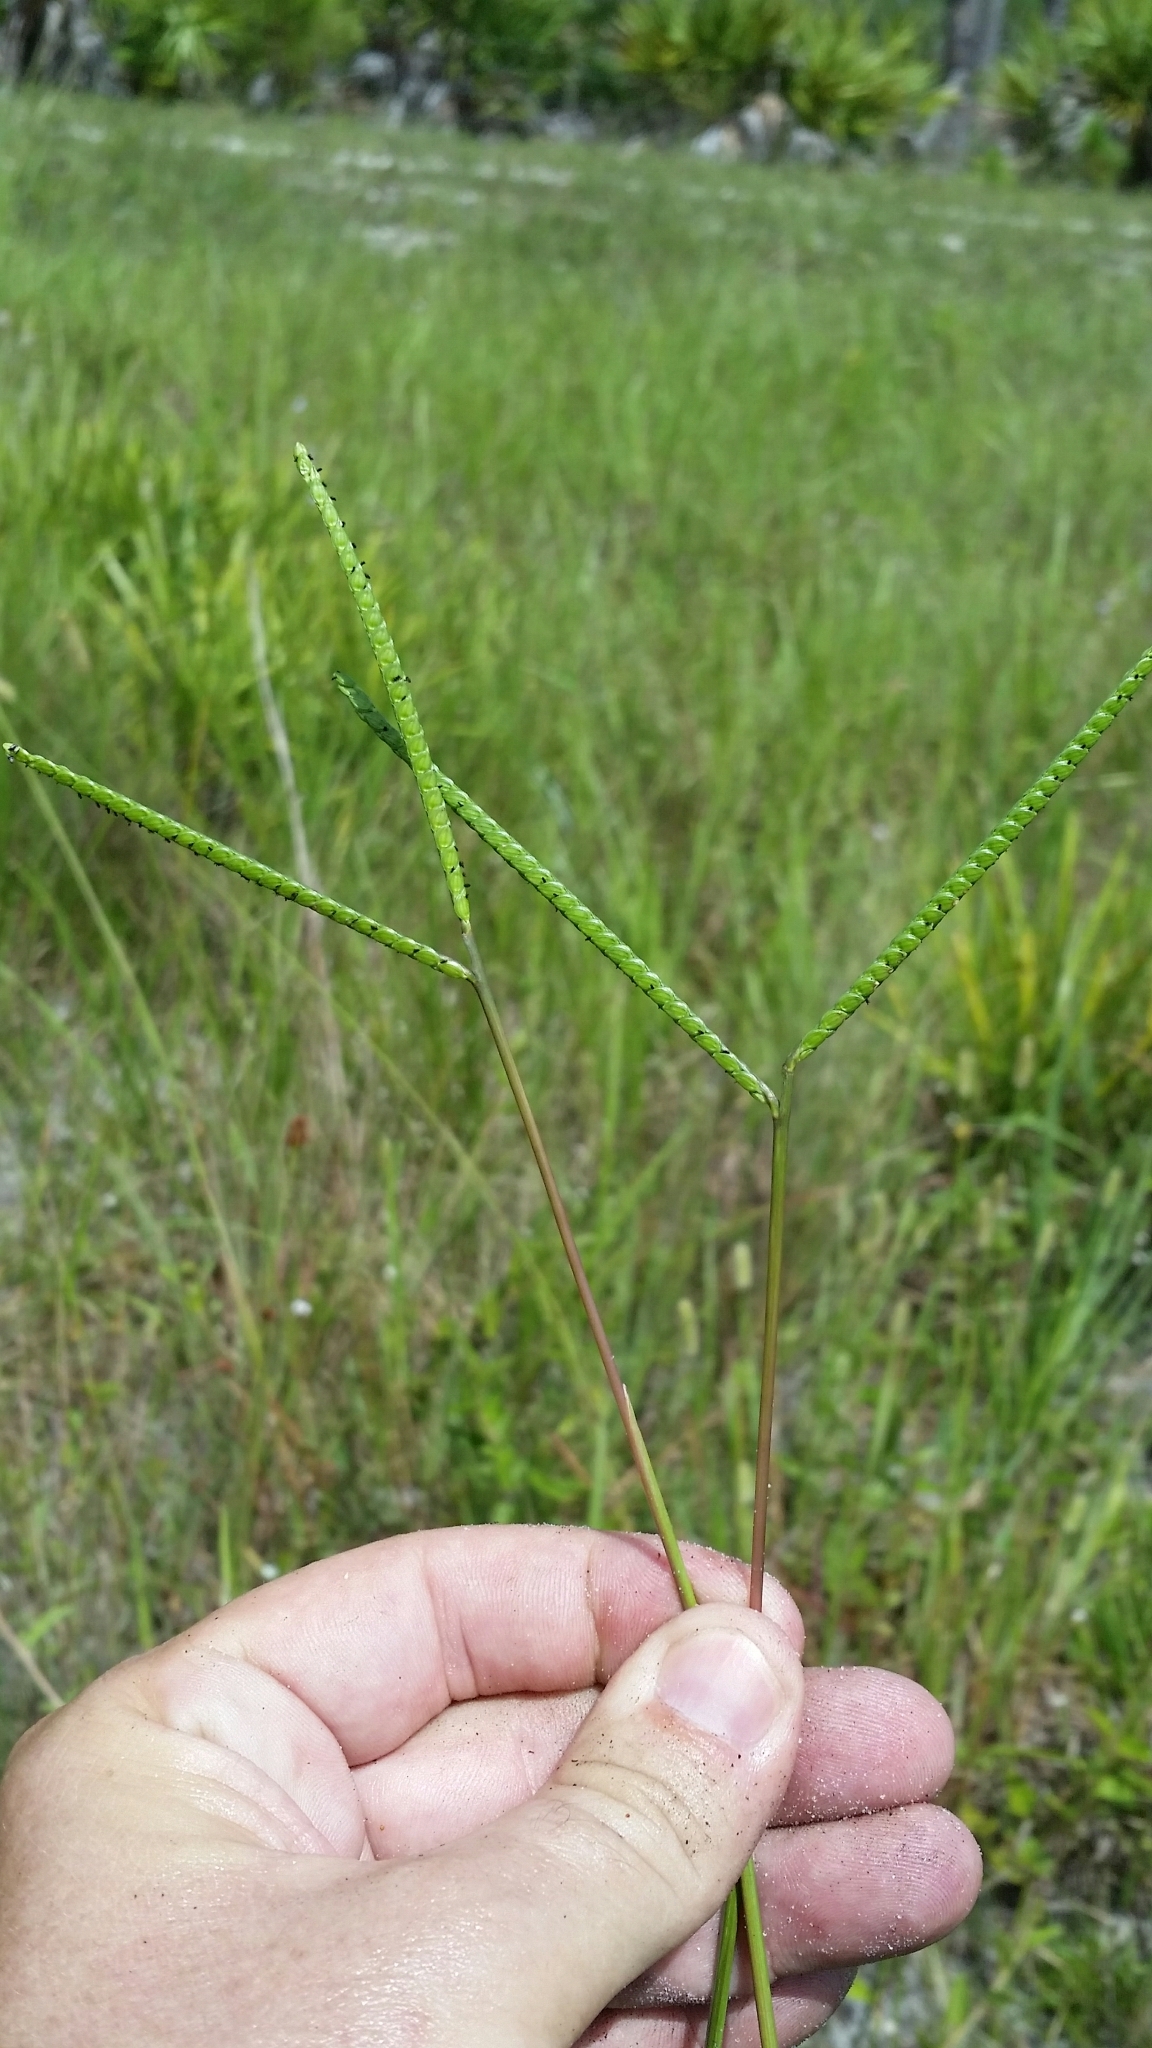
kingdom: Plantae
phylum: Tracheophyta
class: Liliopsida
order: Poales
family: Poaceae
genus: Paspalum
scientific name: Paspalum notatum
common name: Bahiagrass
